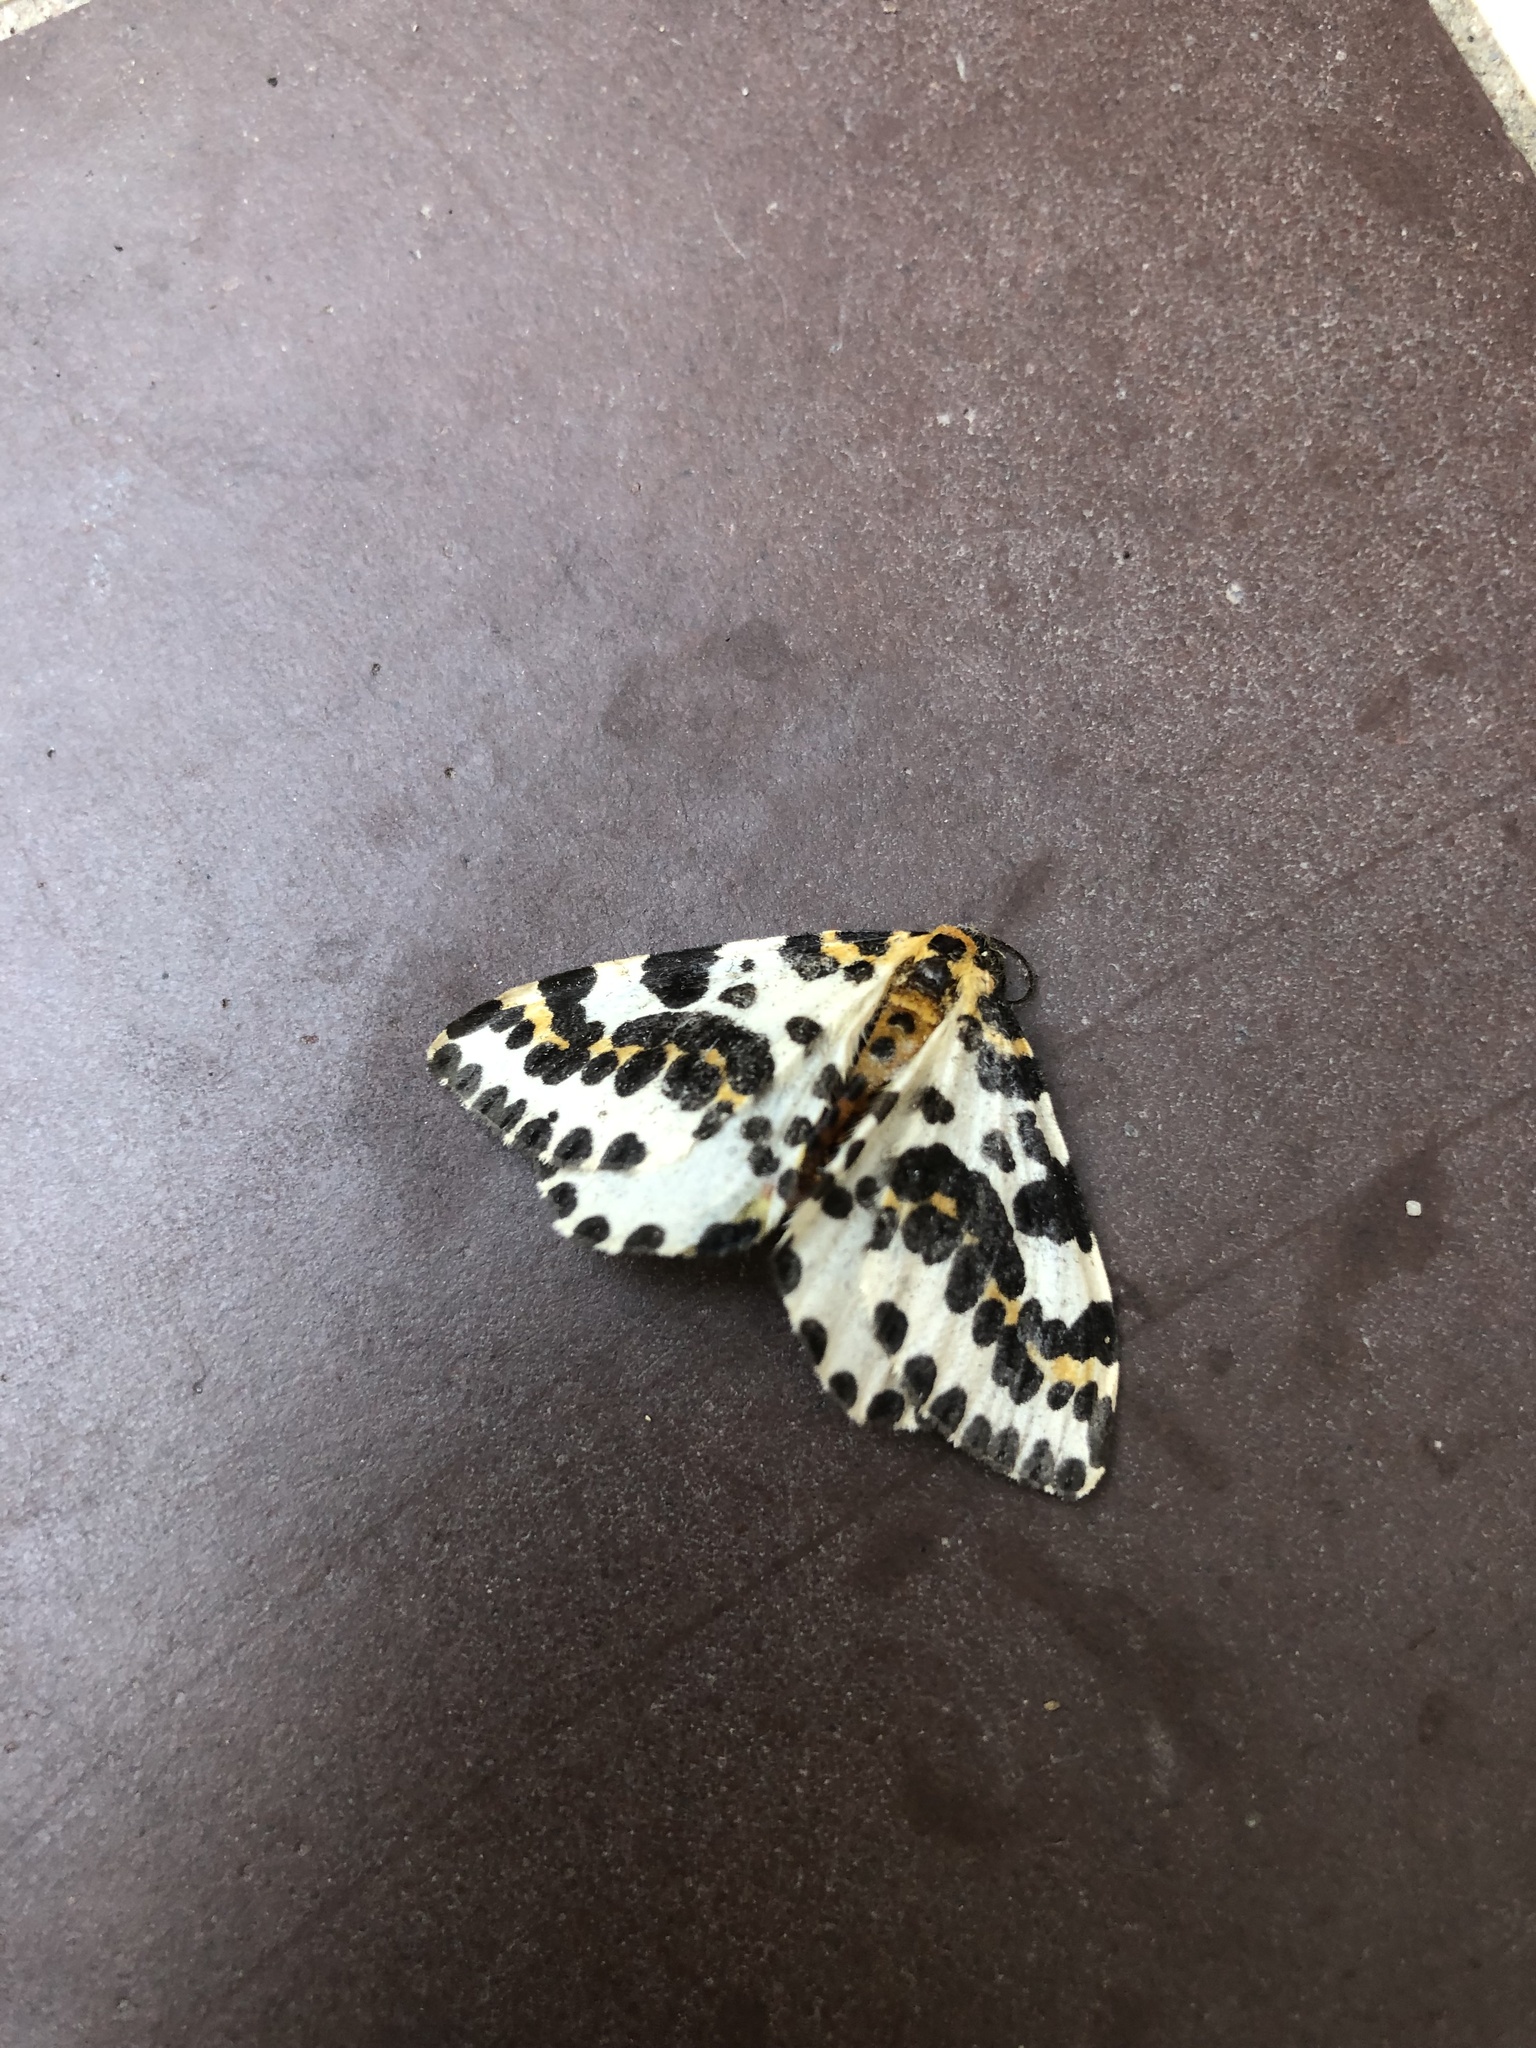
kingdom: Animalia
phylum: Arthropoda
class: Insecta
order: Lepidoptera
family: Geometridae
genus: Abraxas
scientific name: Abraxas grossulariata
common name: Magpie
